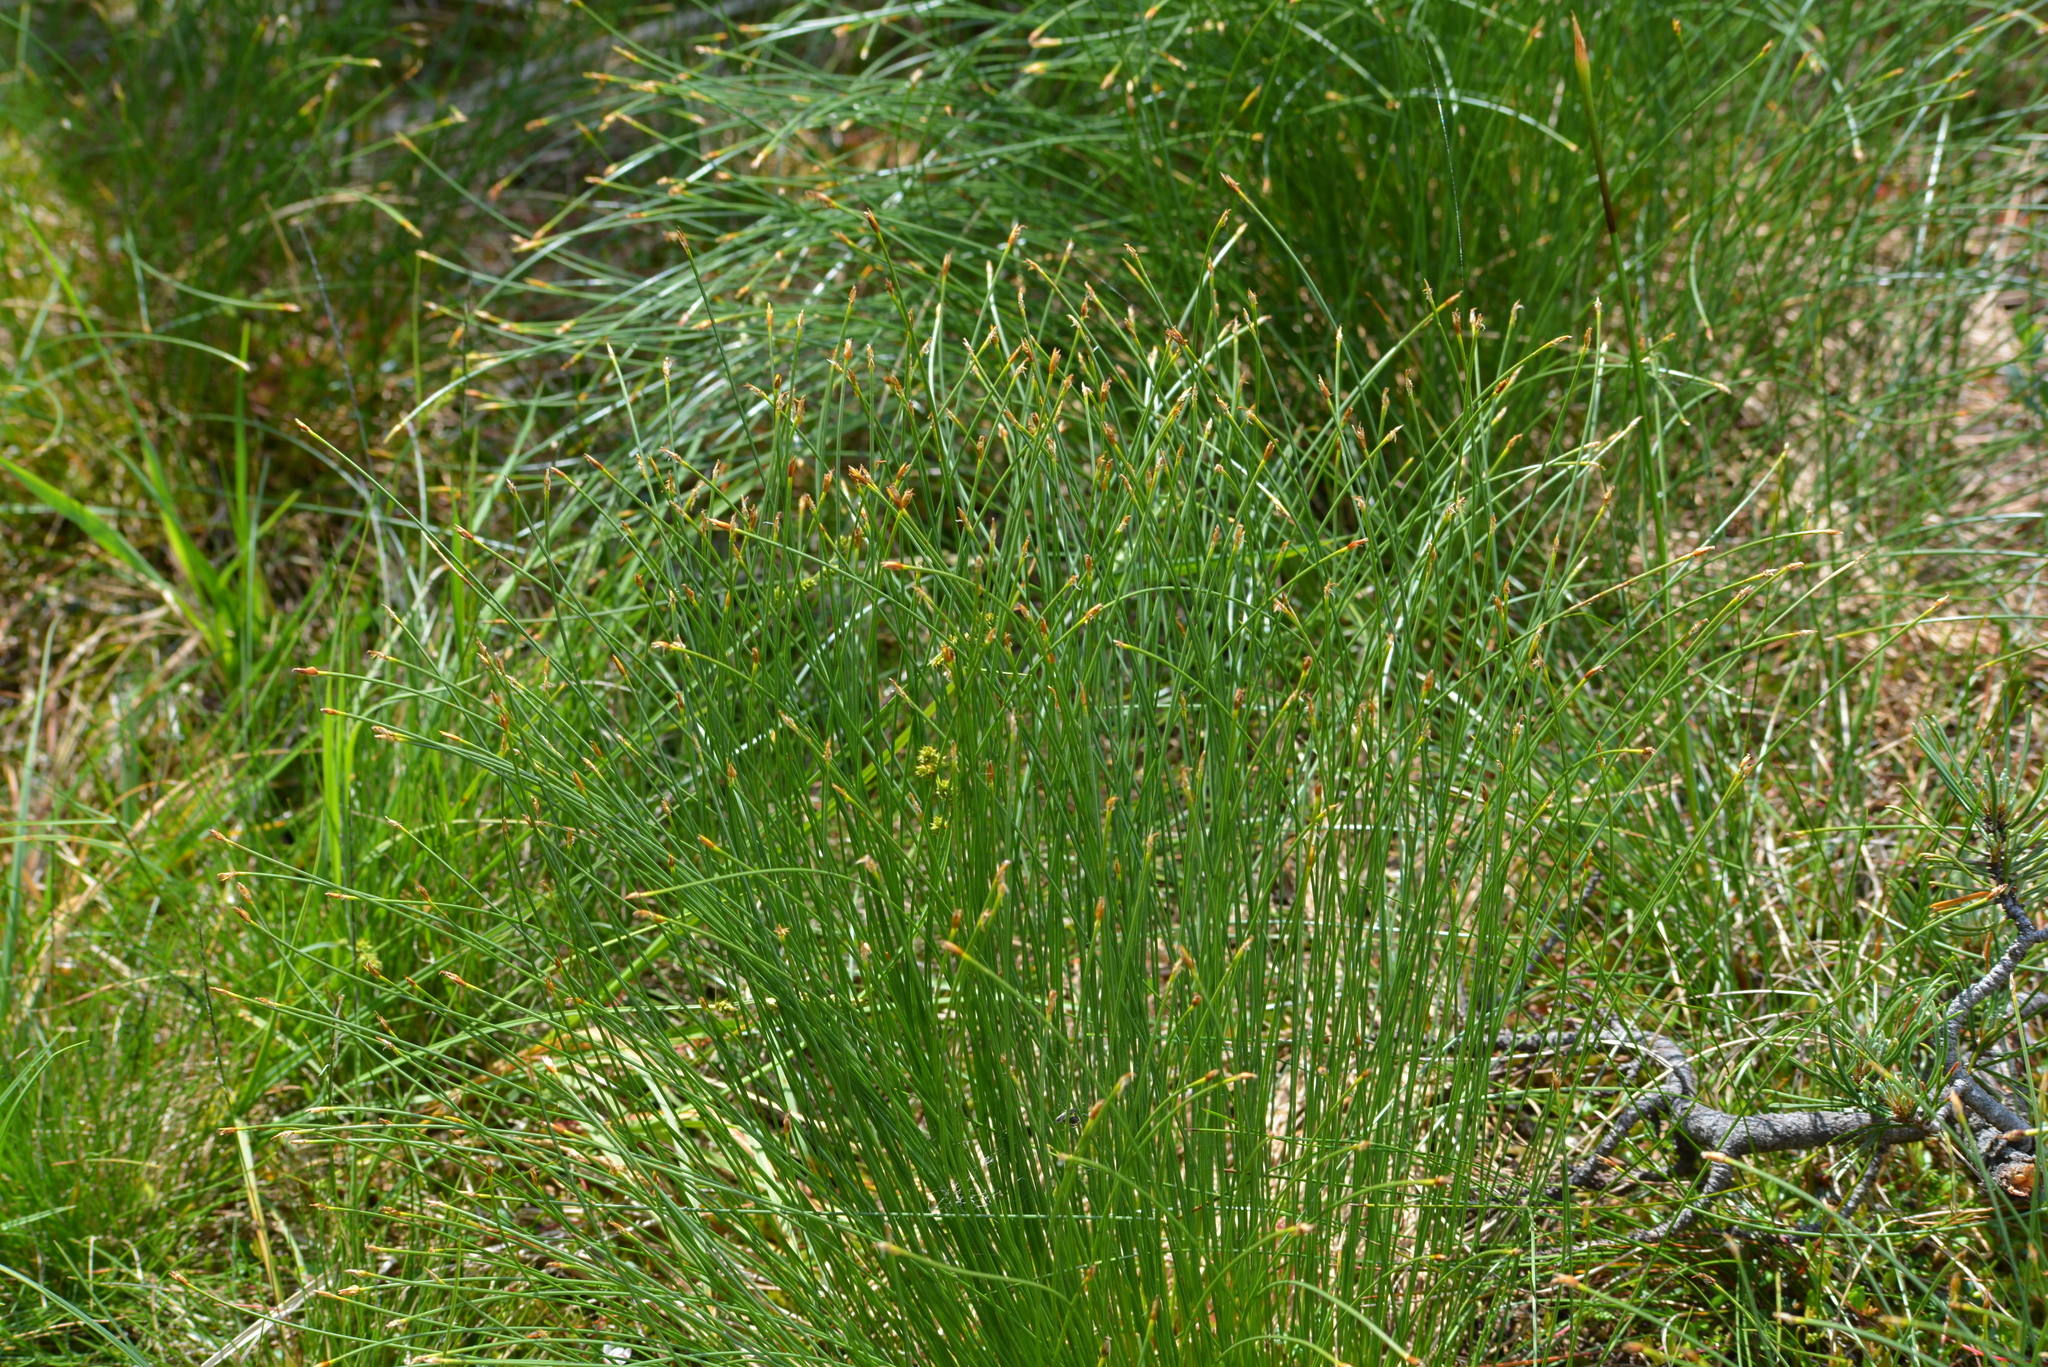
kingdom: Plantae
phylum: Tracheophyta
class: Liliopsida
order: Poales
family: Cyperaceae
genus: Trichophorum
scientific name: Trichophorum cespitosum
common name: Cespitose bulrush
